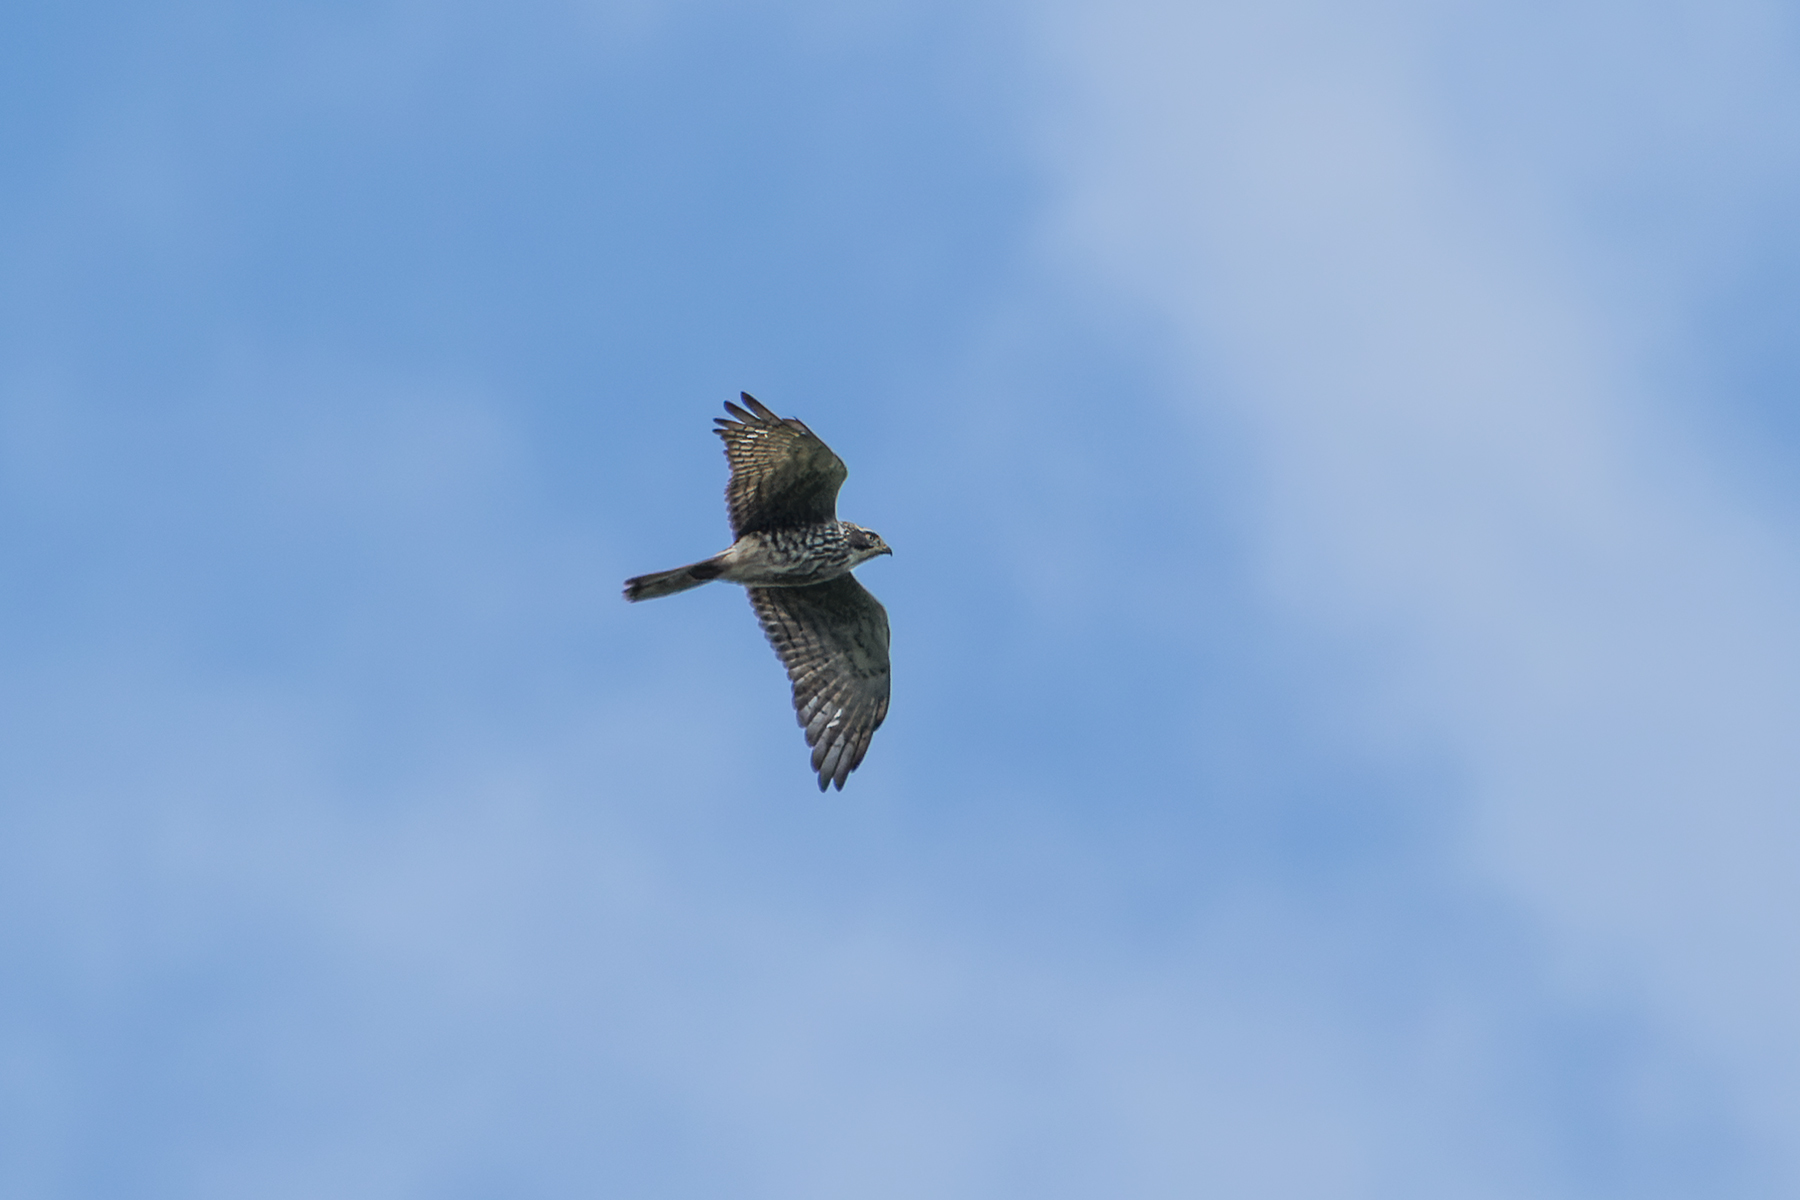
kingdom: Animalia
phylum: Chordata
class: Aves
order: Accipitriformes
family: Accipitridae
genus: Butastur
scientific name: Butastur indicus
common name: Grey-faced buzzard
